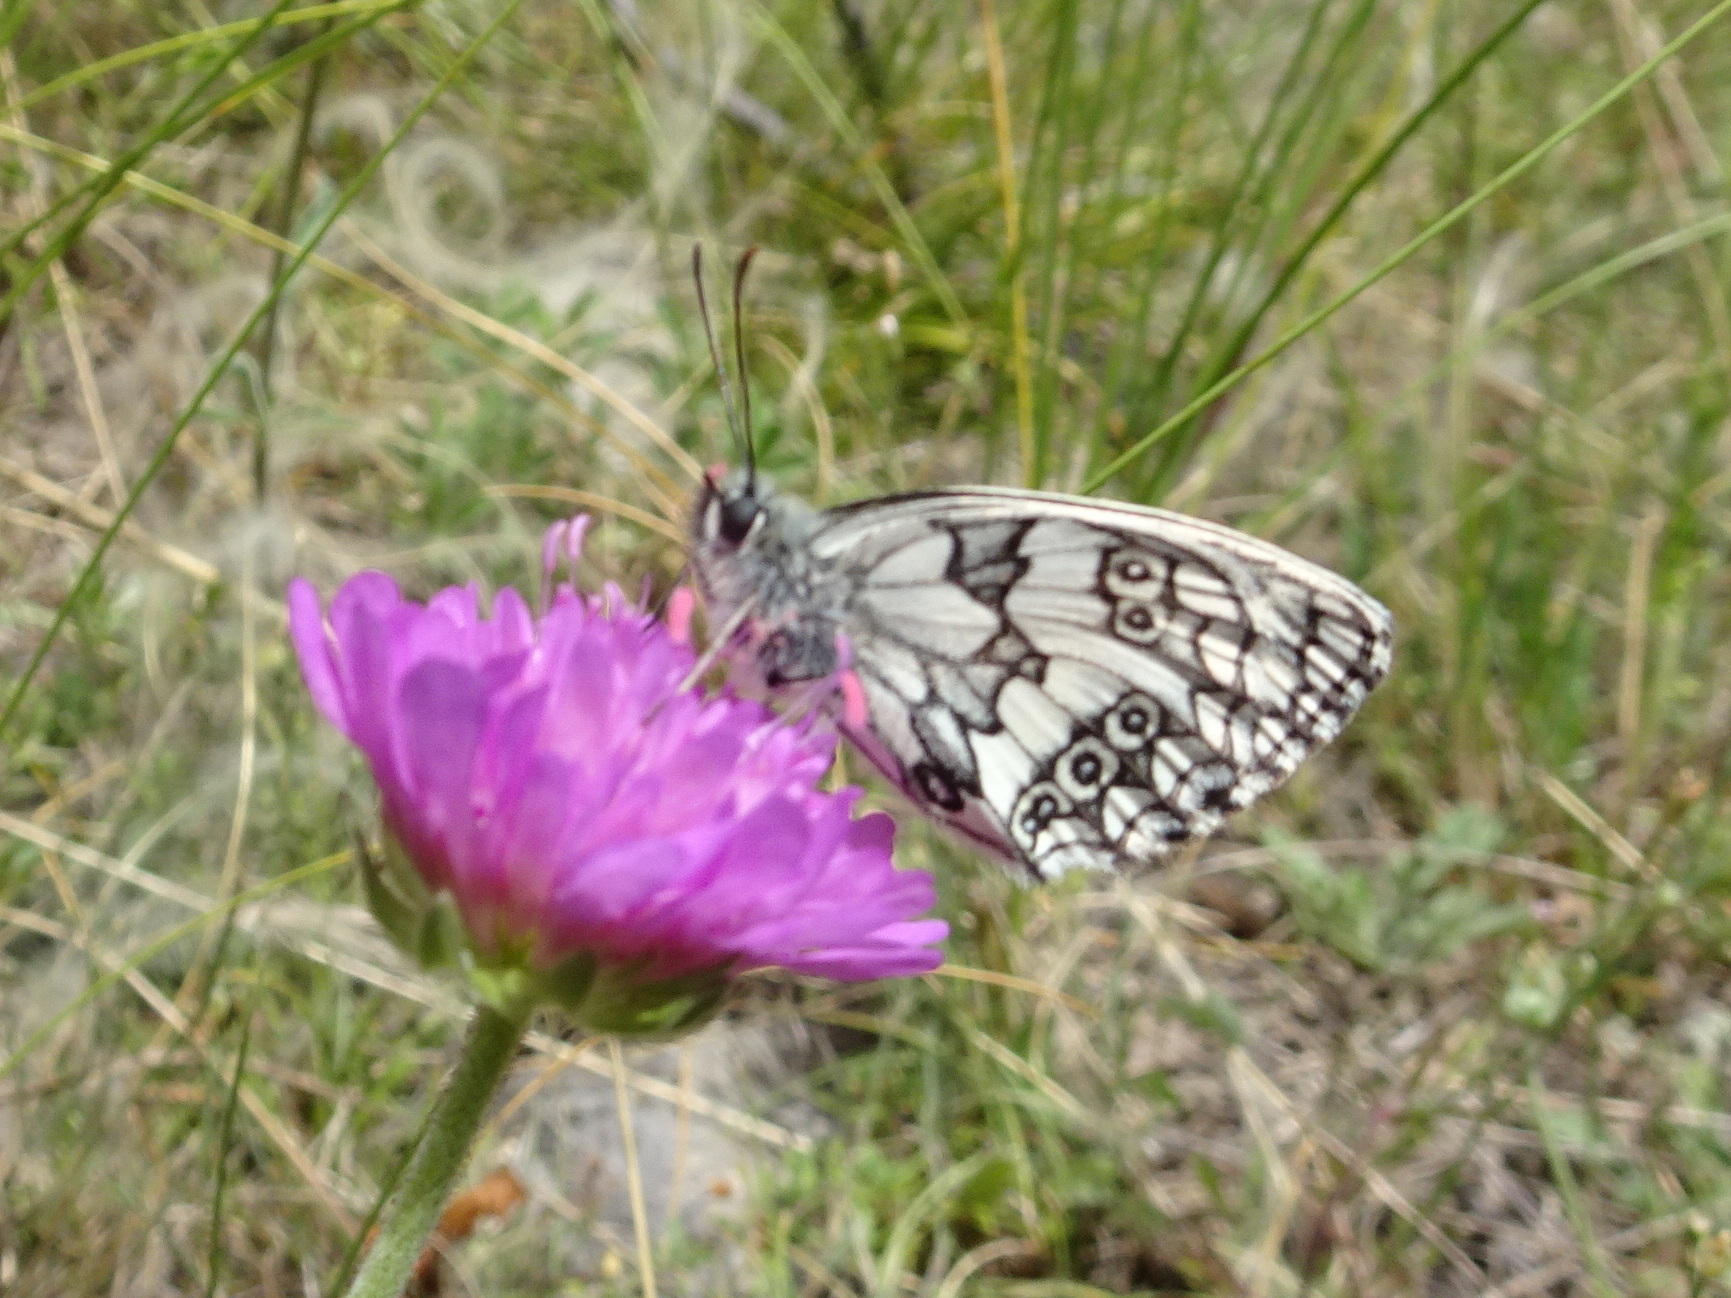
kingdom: Animalia
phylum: Arthropoda
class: Insecta
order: Lepidoptera
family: Nymphalidae
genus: Melanargia
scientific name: Melanargia galathea
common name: Marbled white
